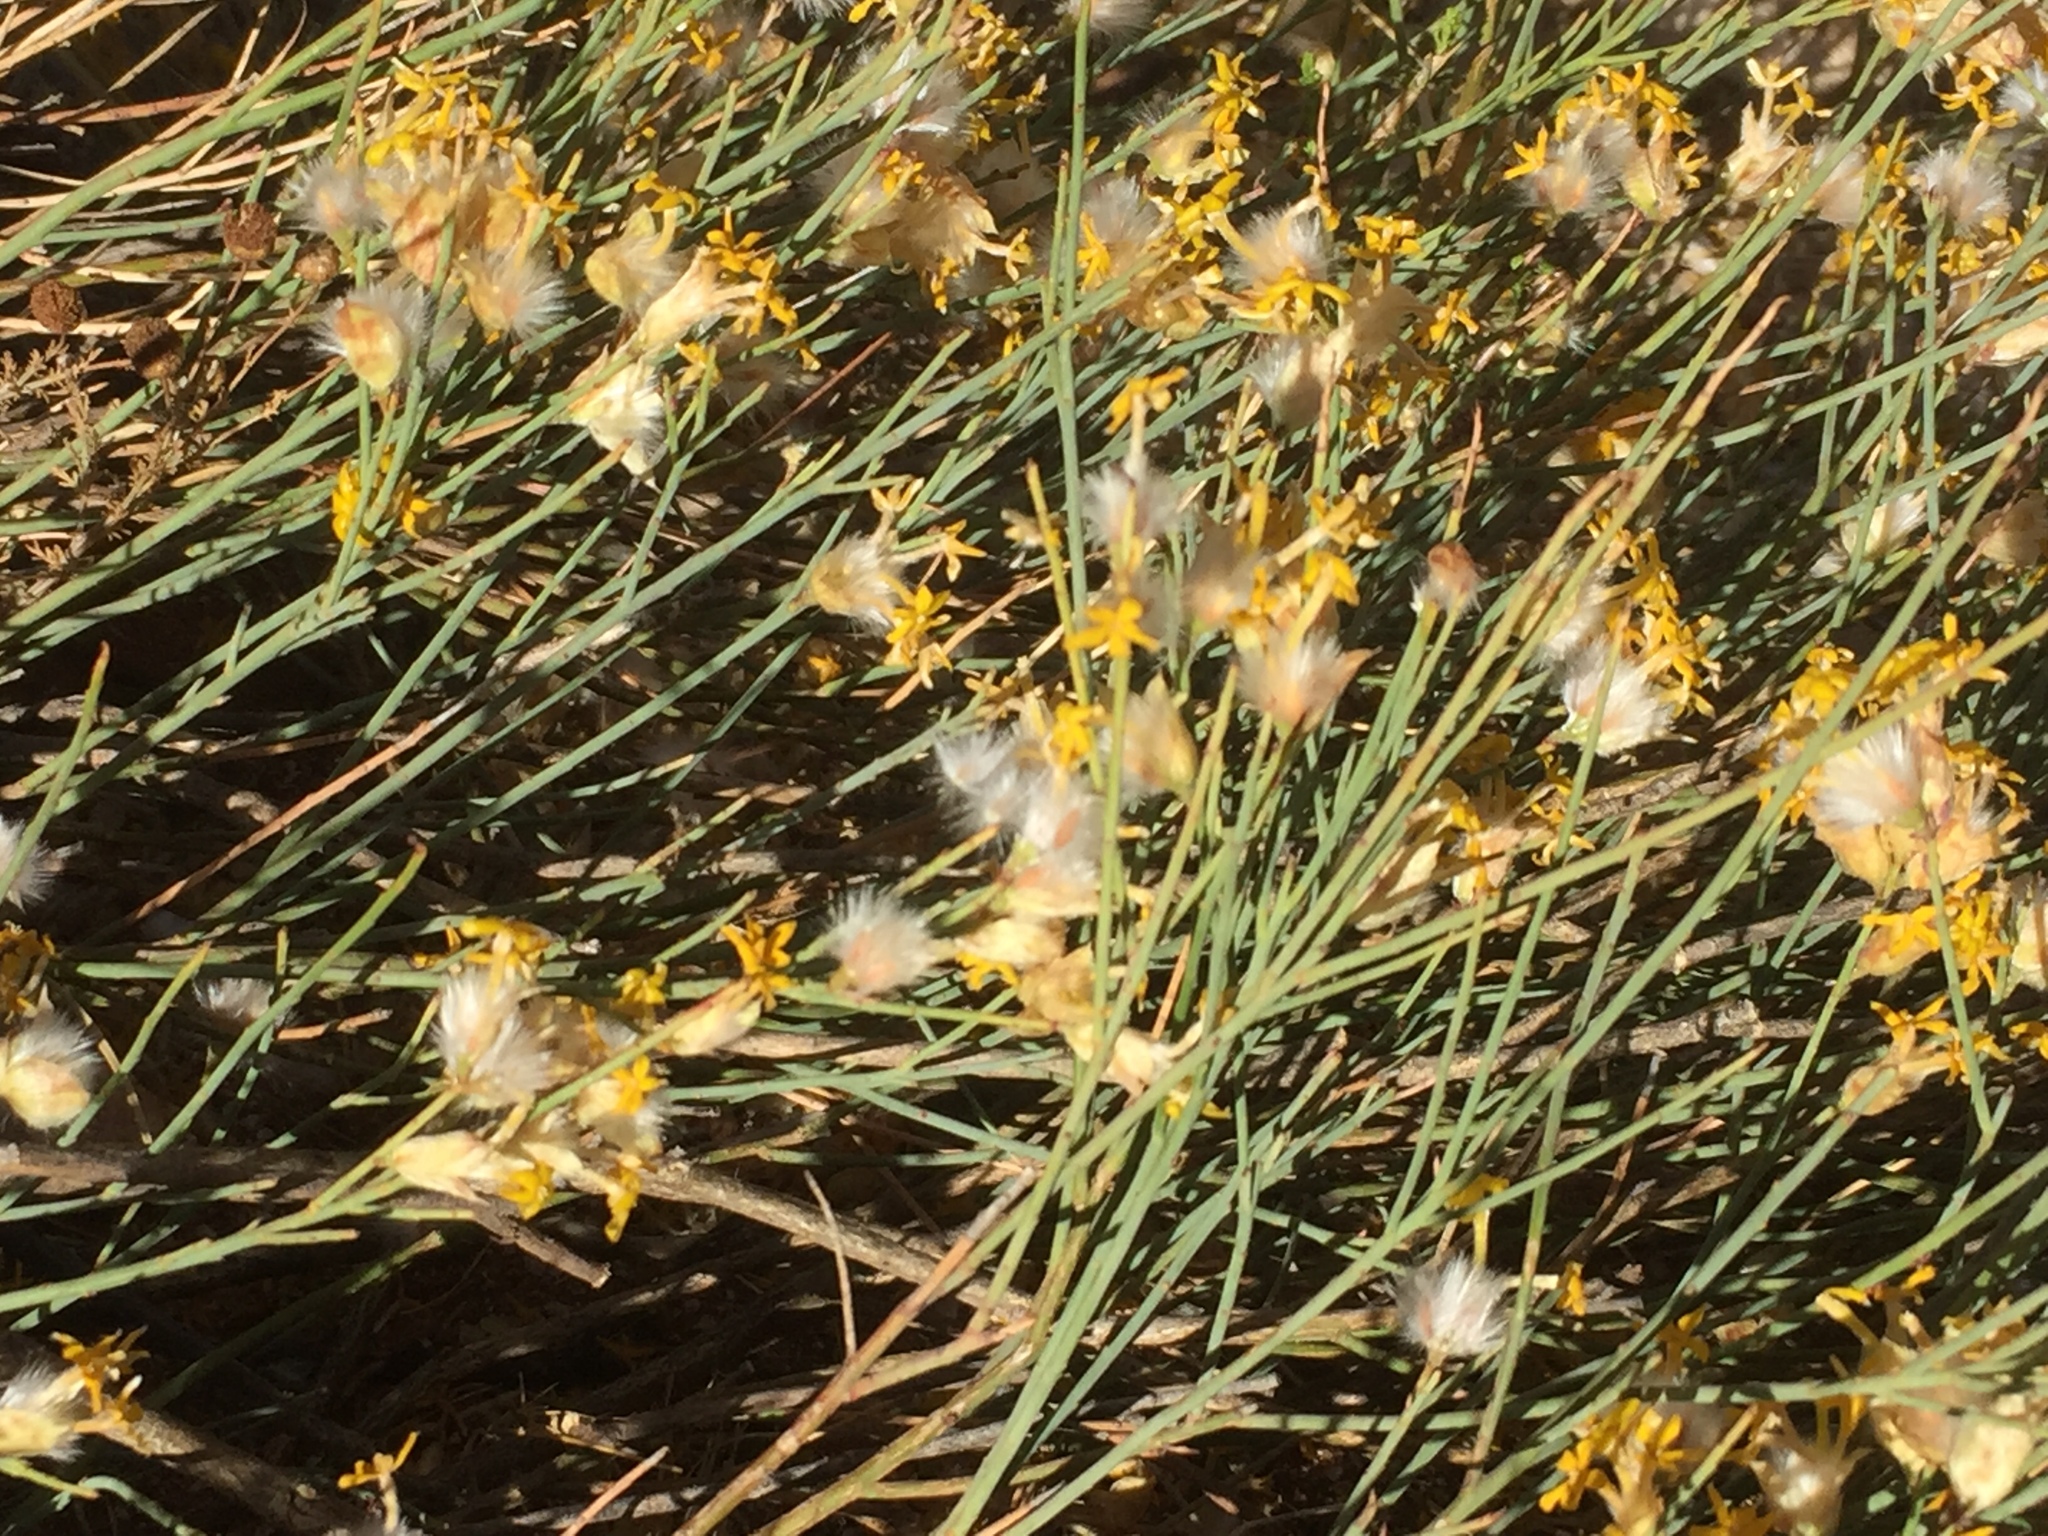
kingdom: Plantae
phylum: Tracheophyta
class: Magnoliopsida
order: Malvales
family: Thymelaeaceae
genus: Gnidia
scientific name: Gnidia polycephala
